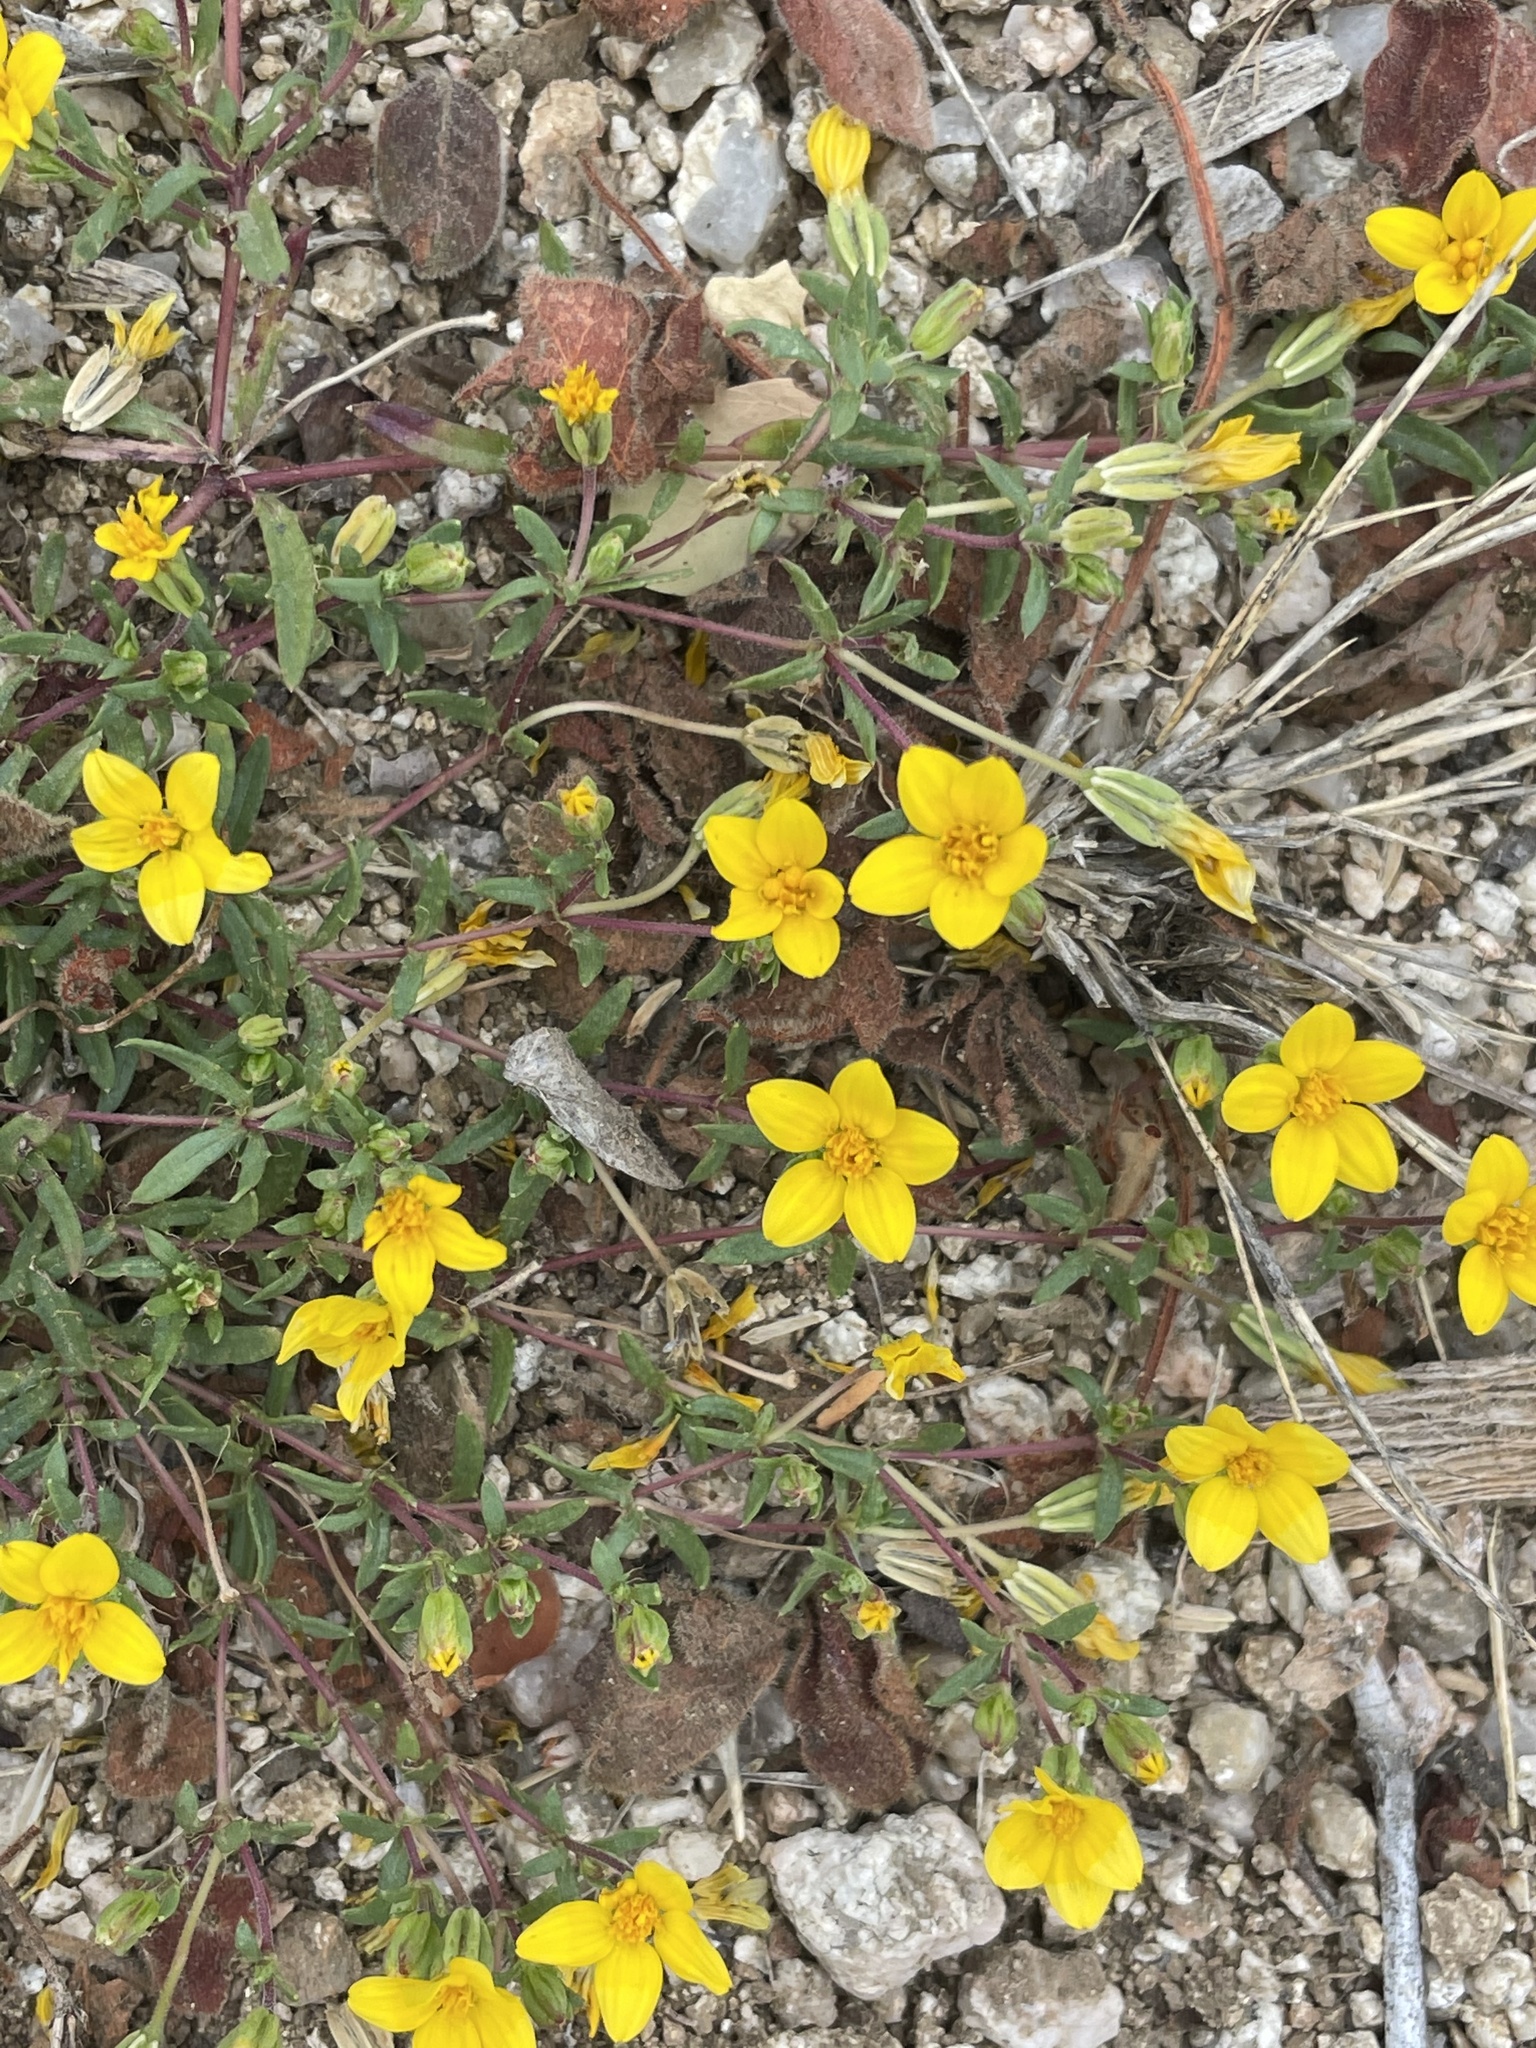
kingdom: Plantae
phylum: Tracheophyta
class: Magnoliopsida
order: Asterales
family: Asteraceae
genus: Pectis
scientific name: Pectis multiseta
